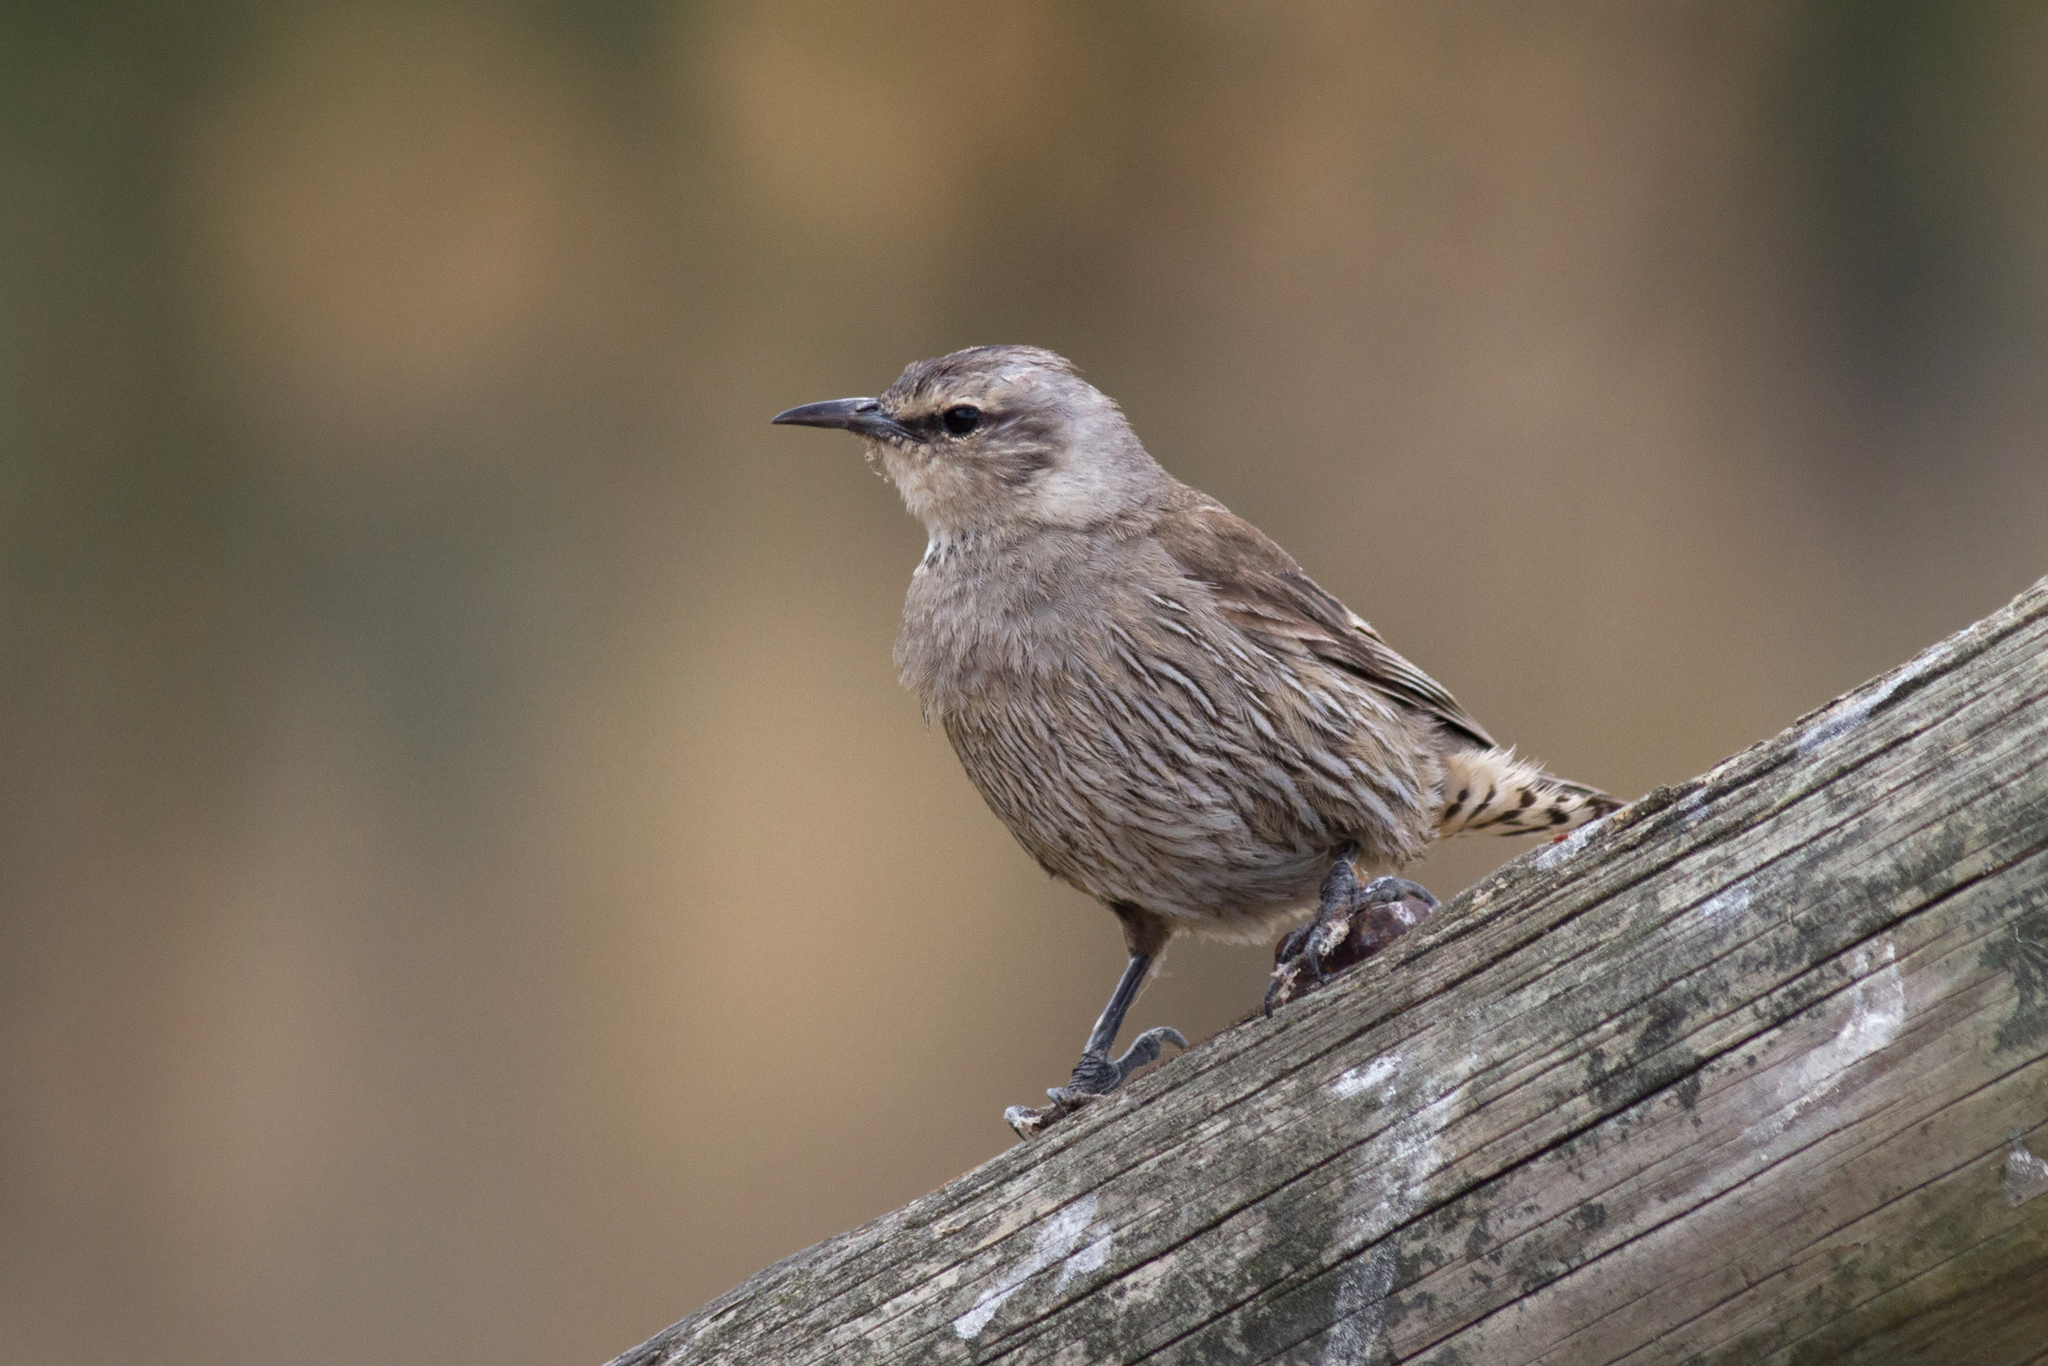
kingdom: Animalia
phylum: Chordata
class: Aves
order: Passeriformes
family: Climacteridae
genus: Climacteris
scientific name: Climacteris picumnus
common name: Brown treecreeper
